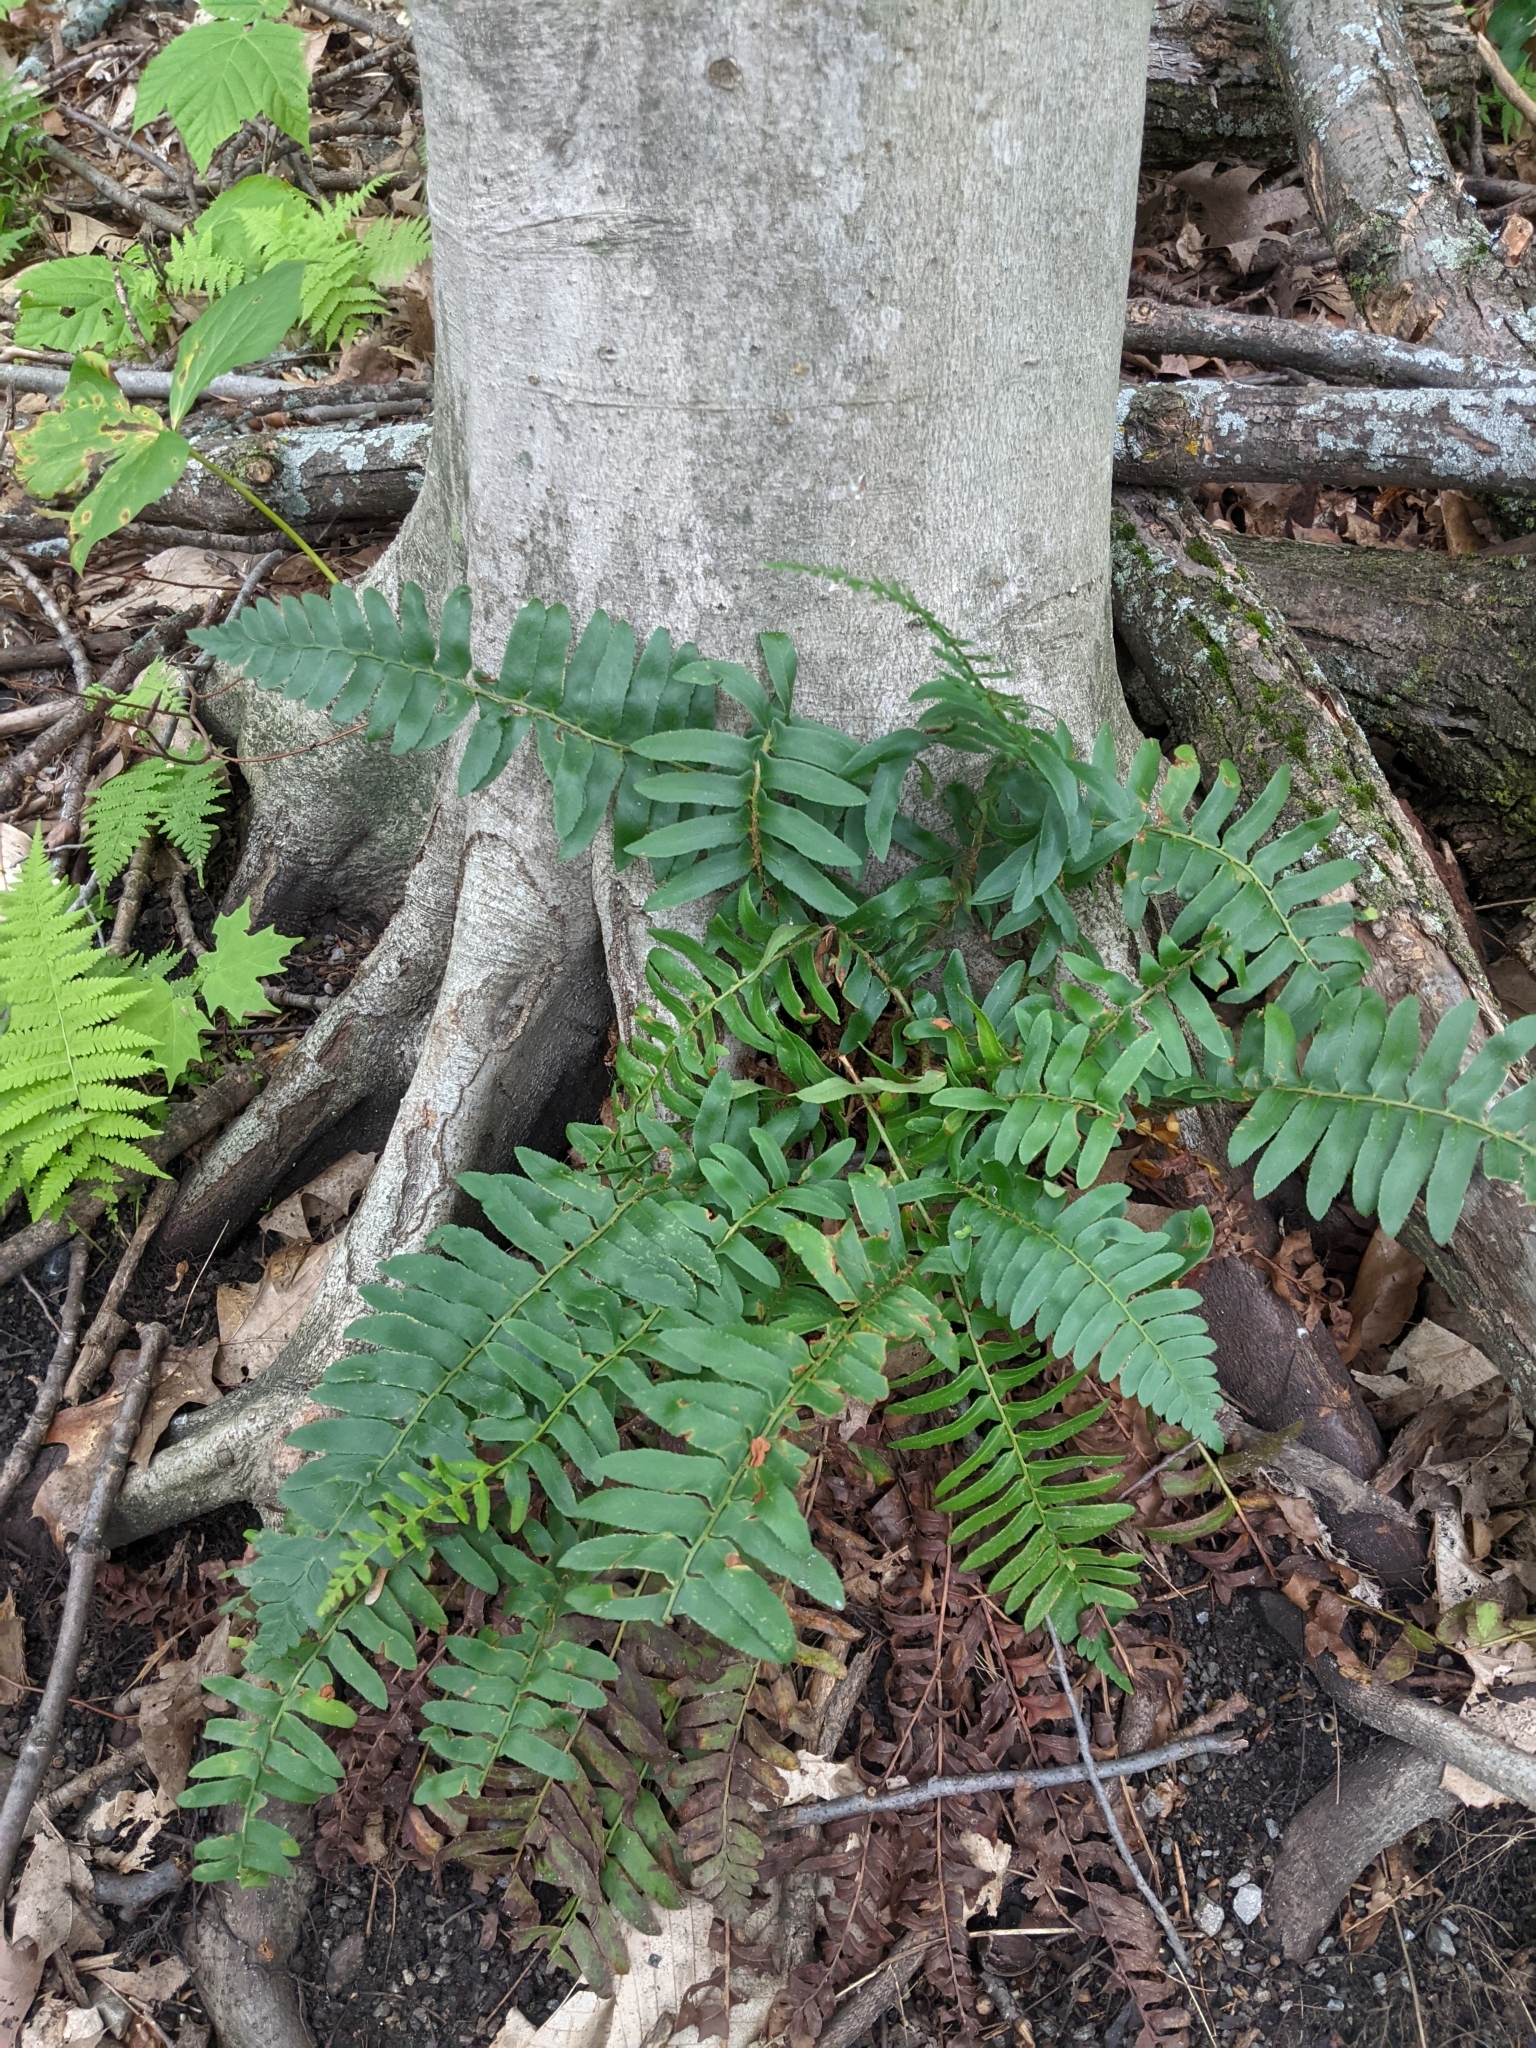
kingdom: Plantae
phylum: Tracheophyta
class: Polypodiopsida
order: Polypodiales
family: Dryopteridaceae
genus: Polystichum
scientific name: Polystichum acrostichoides
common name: Christmas fern
